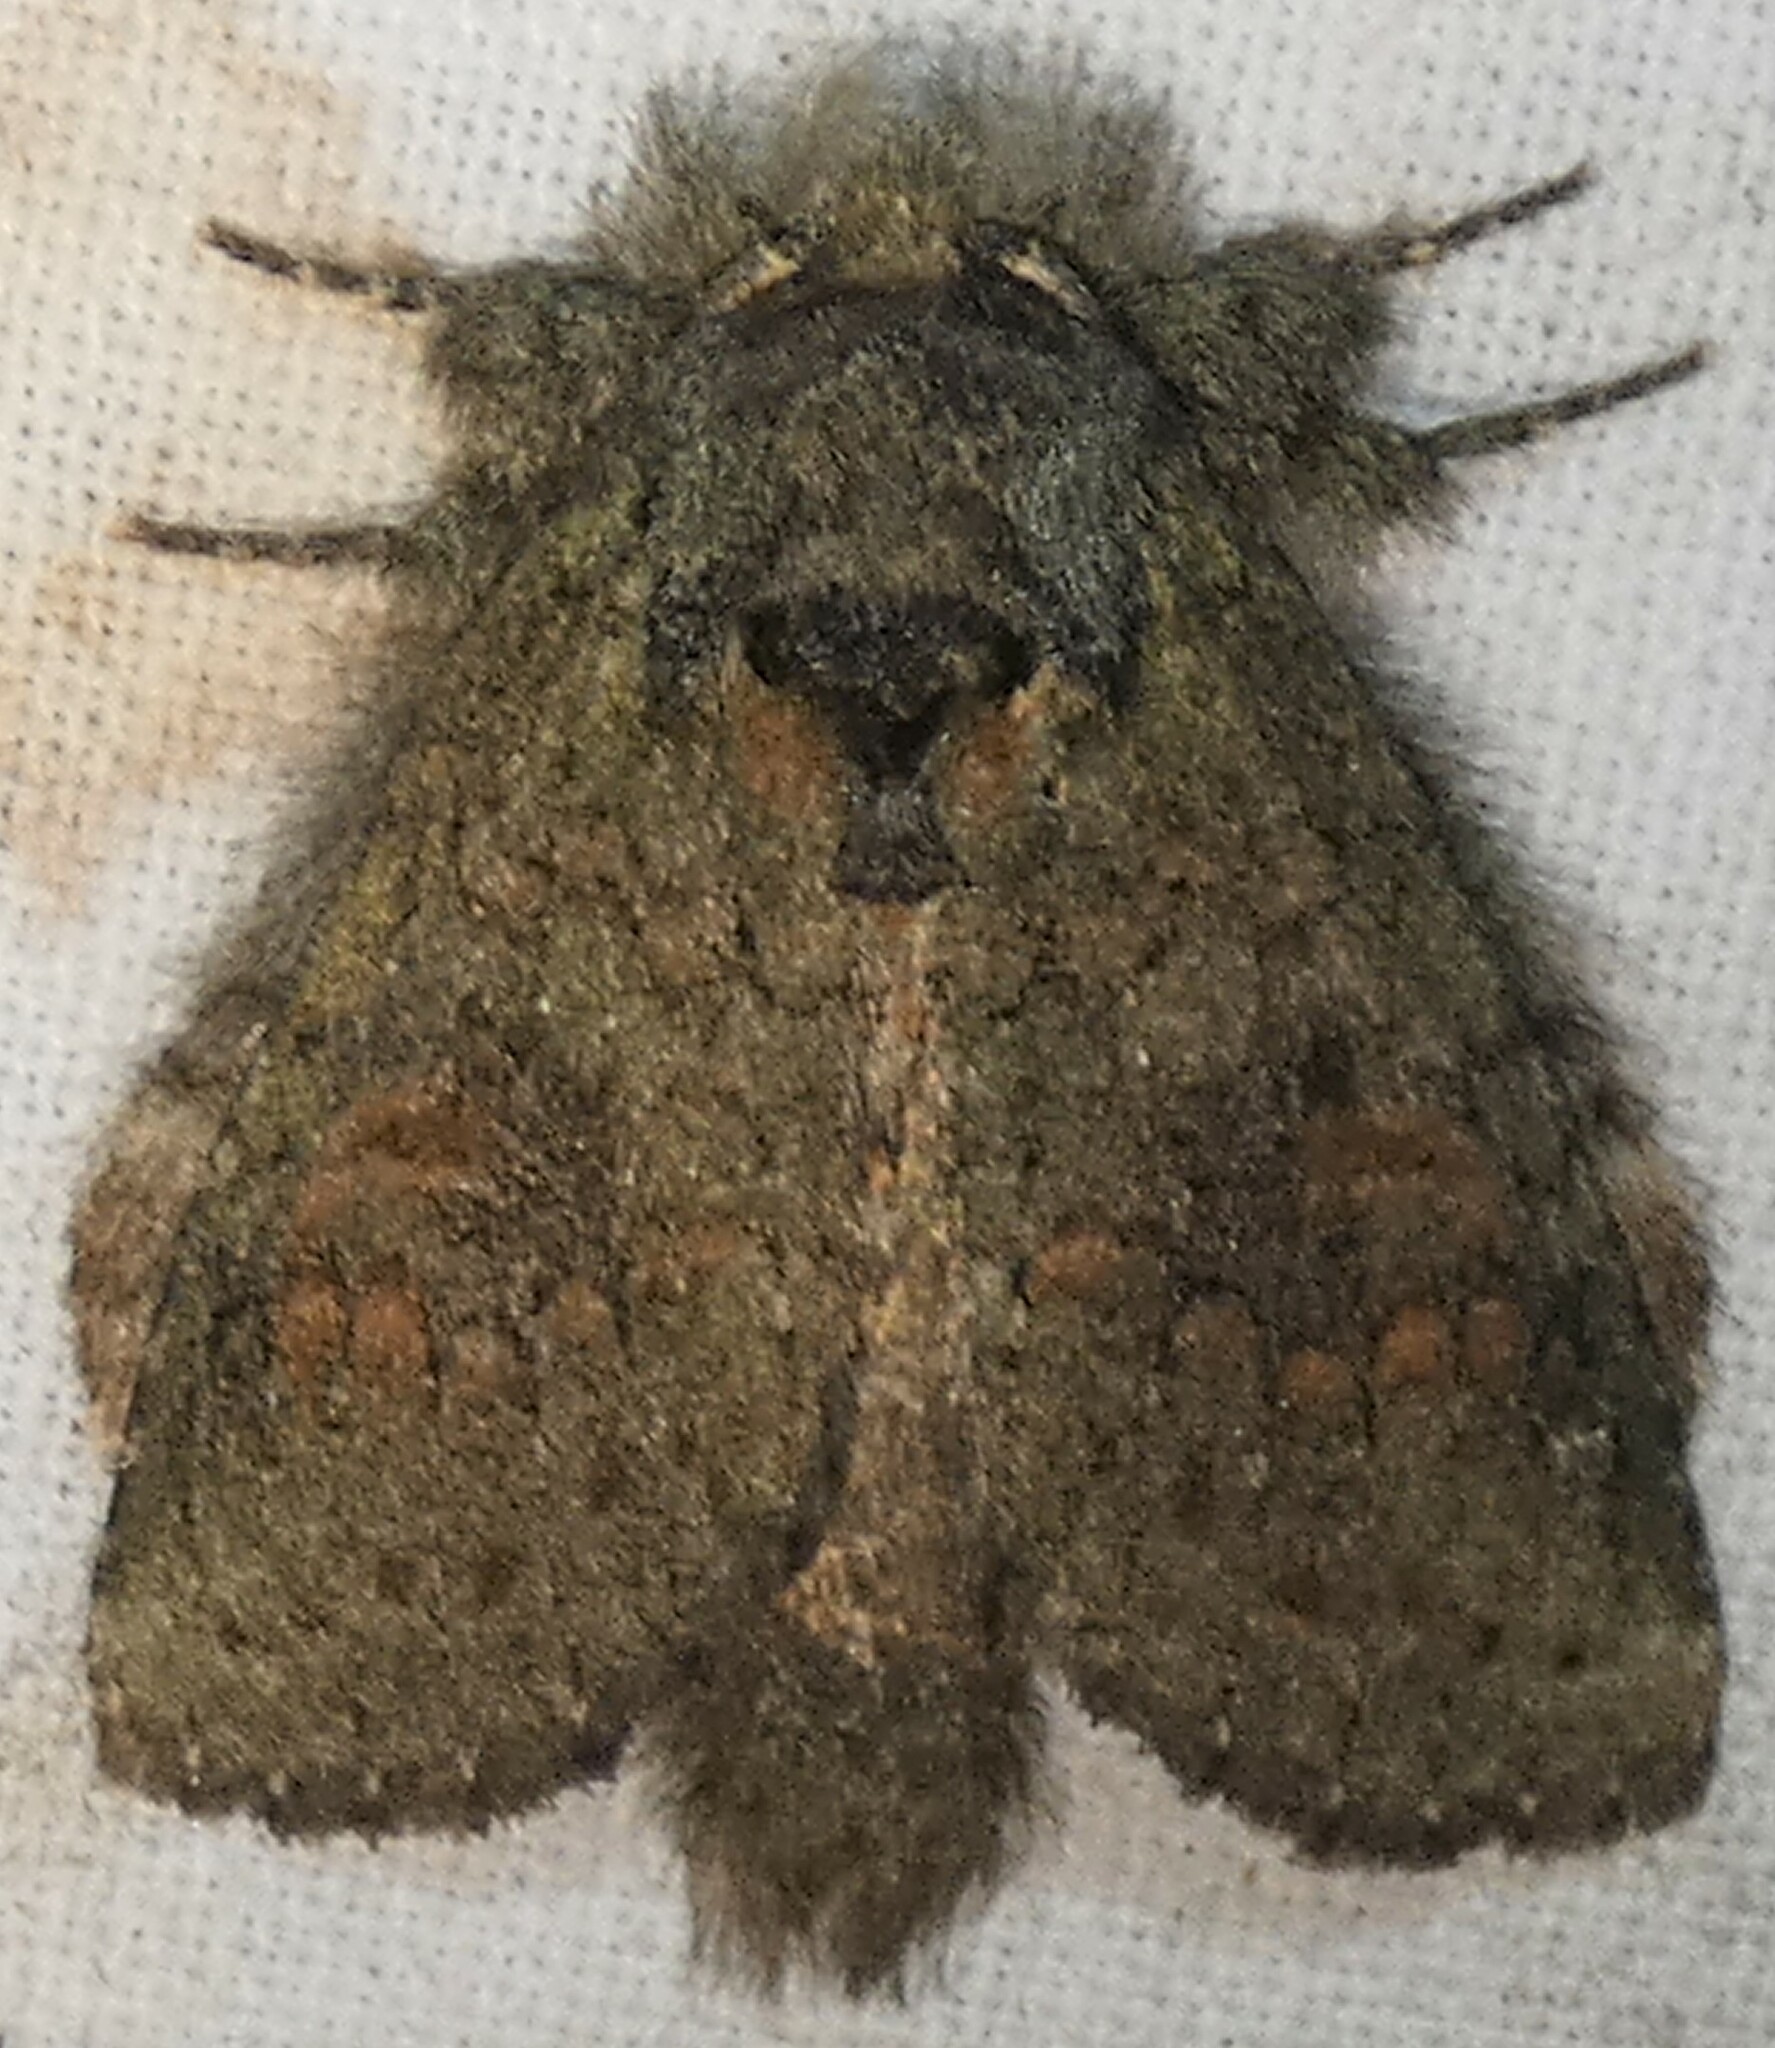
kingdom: Animalia
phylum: Arthropoda
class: Insecta
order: Lepidoptera
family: Notodontidae
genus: Disphragis
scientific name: Disphragis Cecrita biundata
